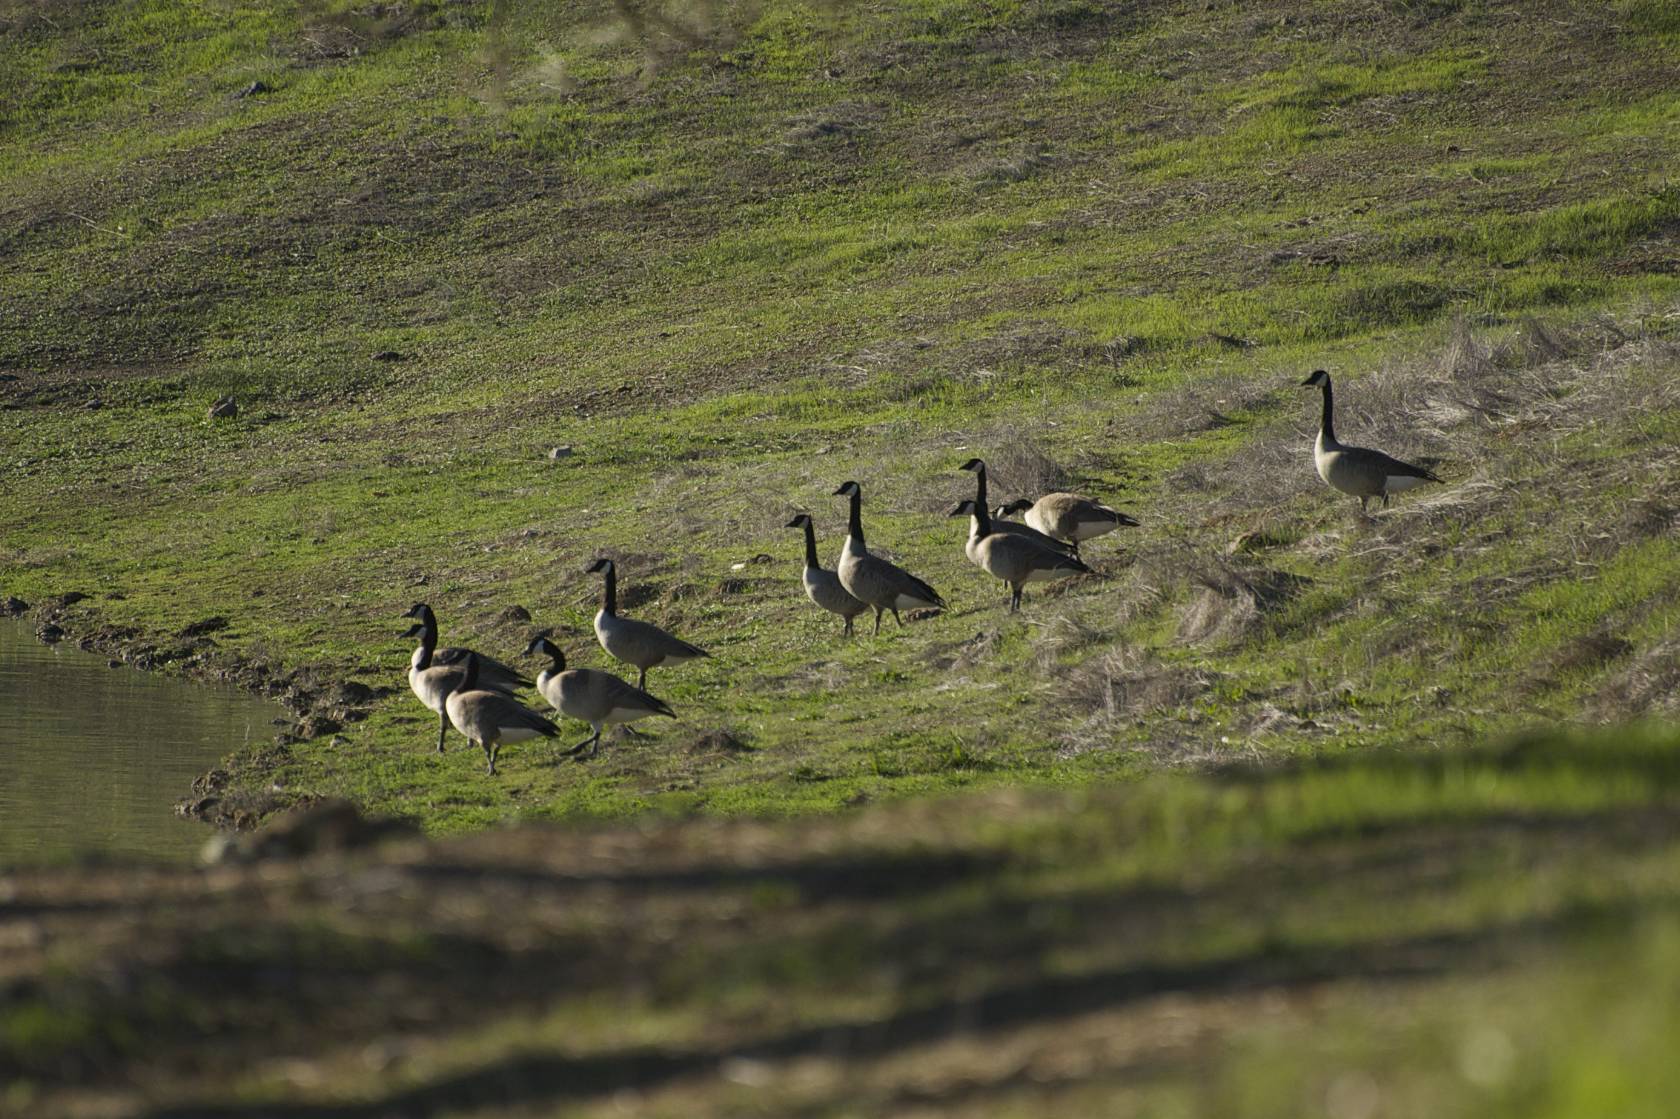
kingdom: Animalia
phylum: Chordata
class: Aves
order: Anseriformes
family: Anatidae
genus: Branta
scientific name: Branta canadensis
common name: Canada goose
